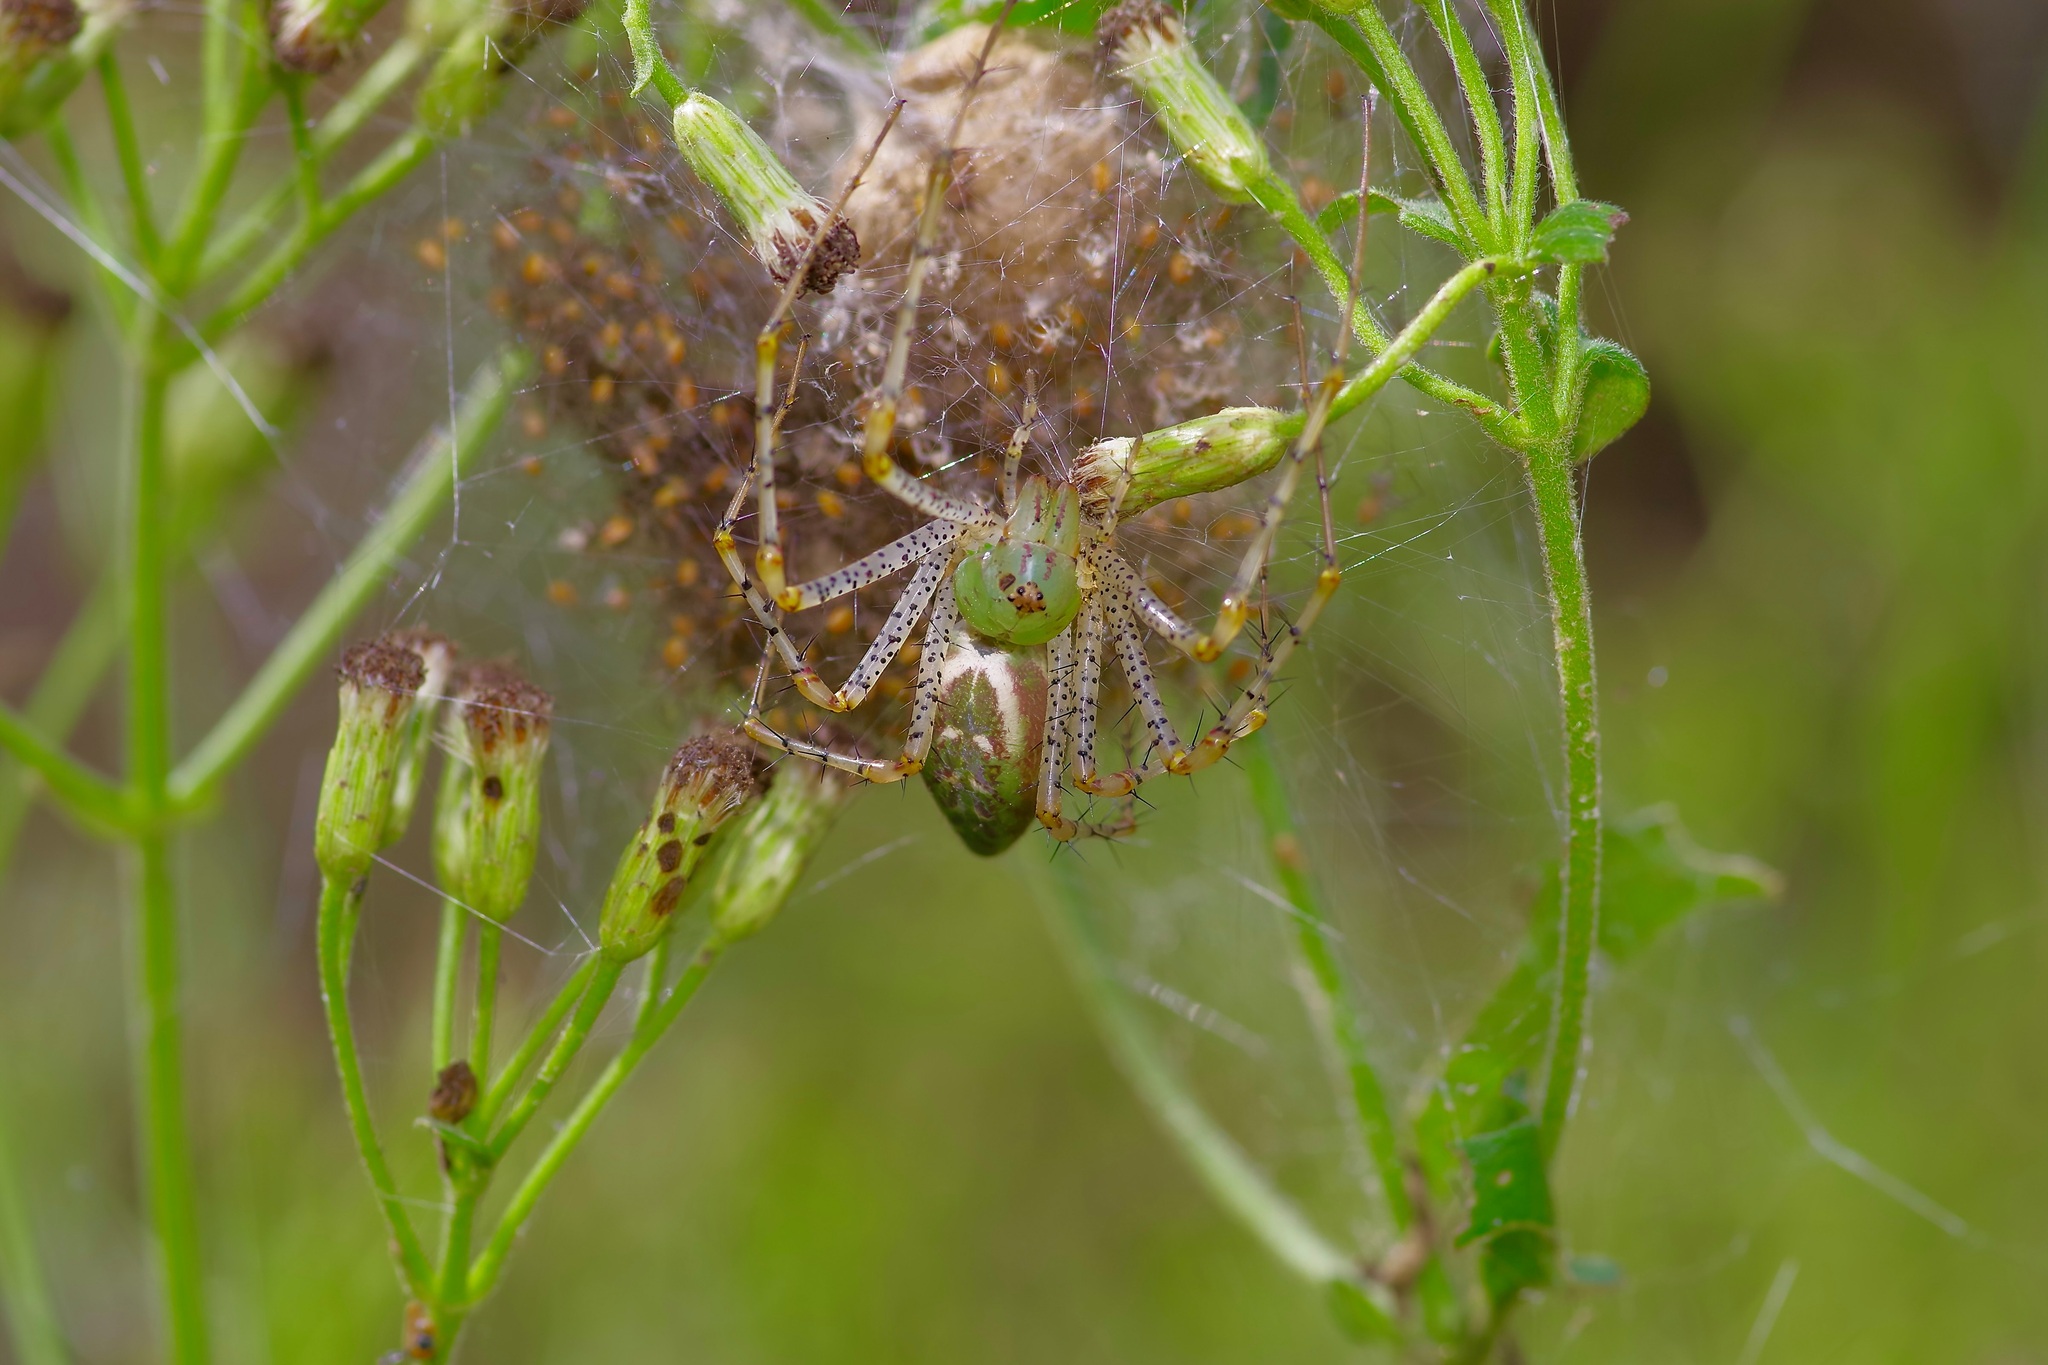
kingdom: Animalia
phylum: Arthropoda
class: Arachnida
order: Araneae
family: Oxyopidae
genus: Peucetia
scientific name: Peucetia viridans
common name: Lynx spiders
